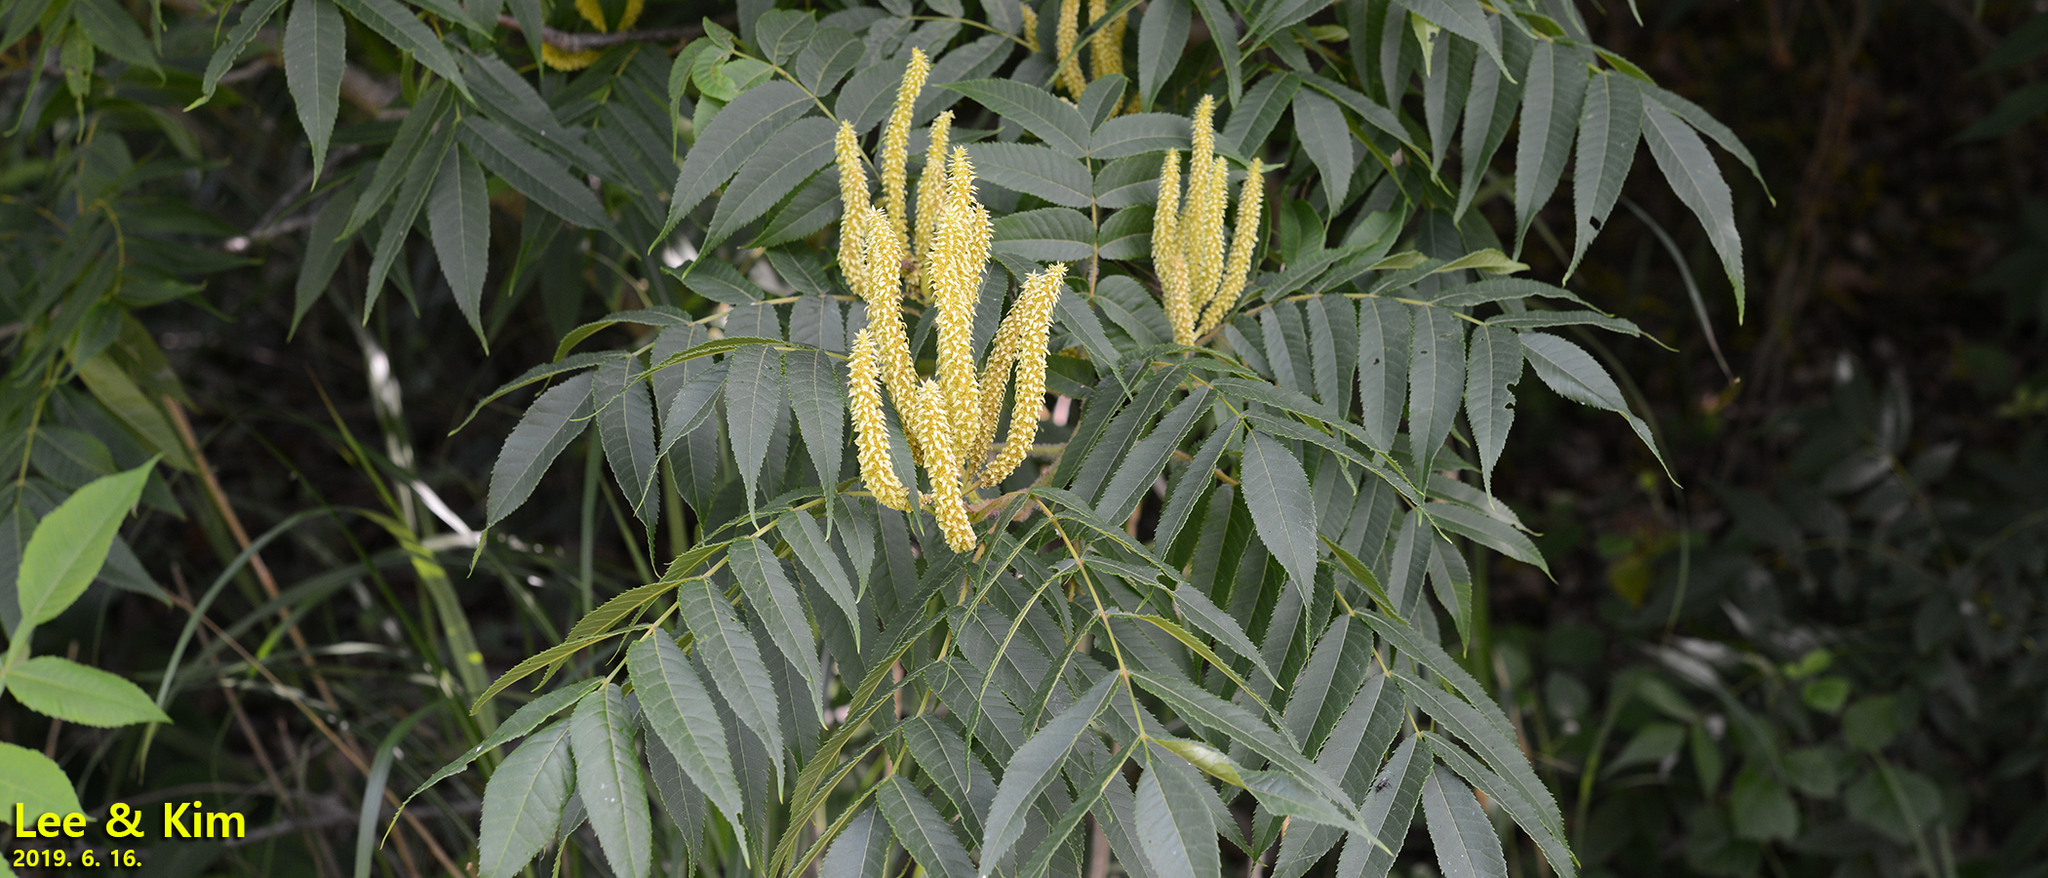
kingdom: Plantae
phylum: Tracheophyta
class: Magnoliopsida
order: Fagales
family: Juglandaceae
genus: Platycarya
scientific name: Platycarya strobilacea
